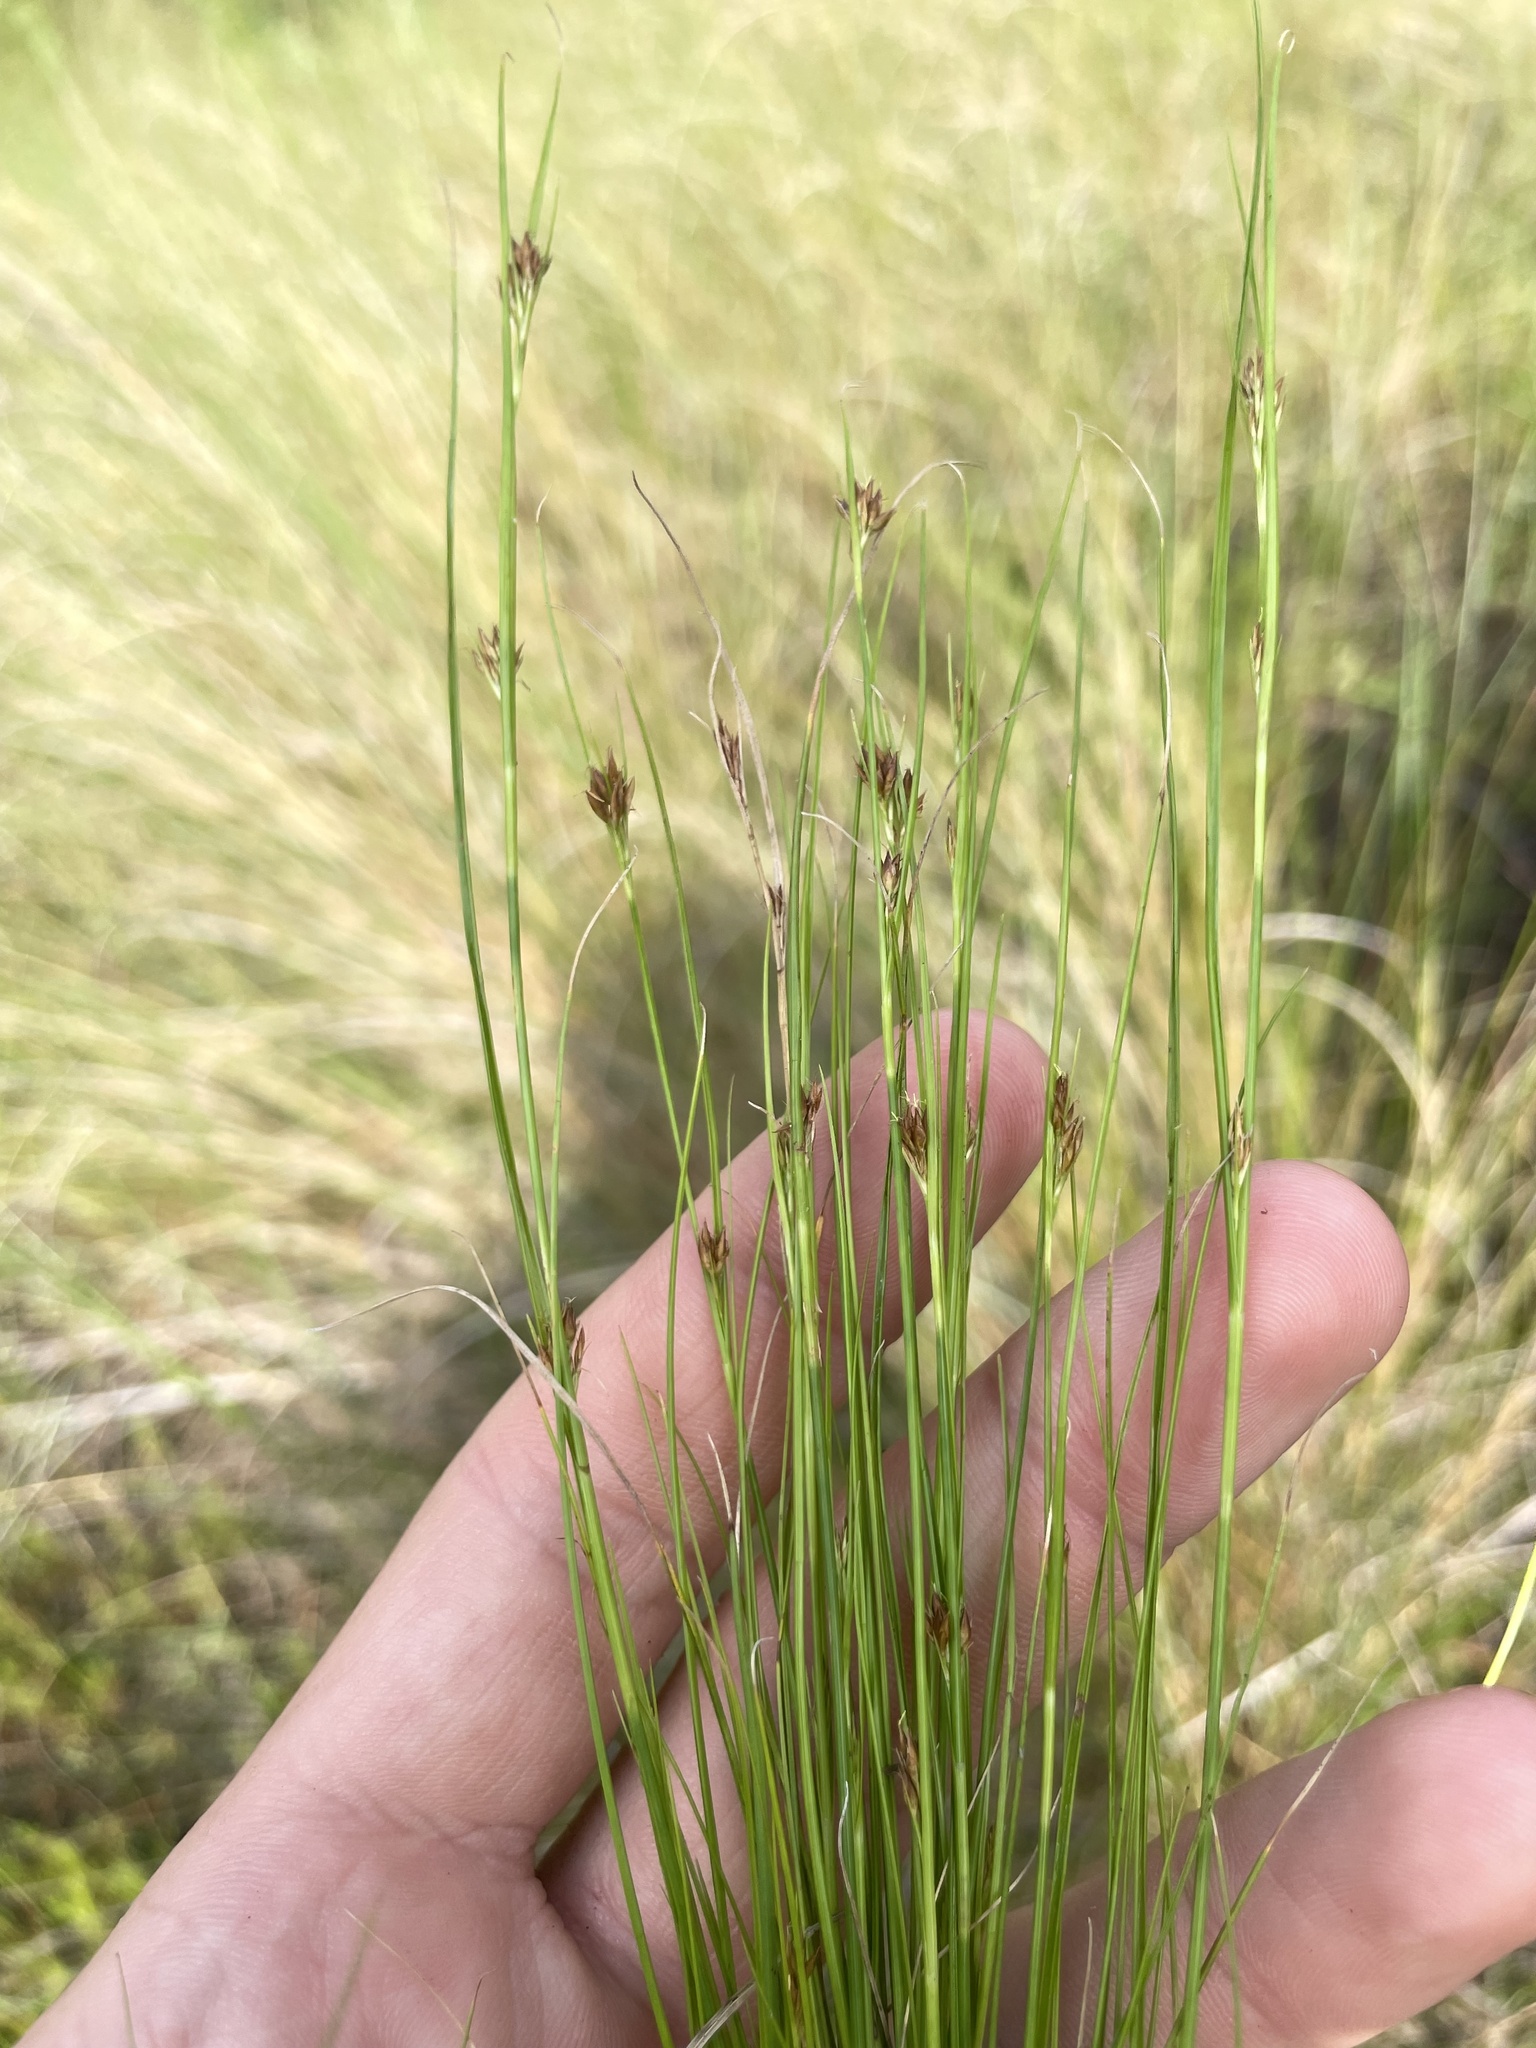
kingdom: Plantae
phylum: Tracheophyta
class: Liliopsida
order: Poales
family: Cyperaceae
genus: Rhynchospora
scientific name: Rhynchospora filifolia
